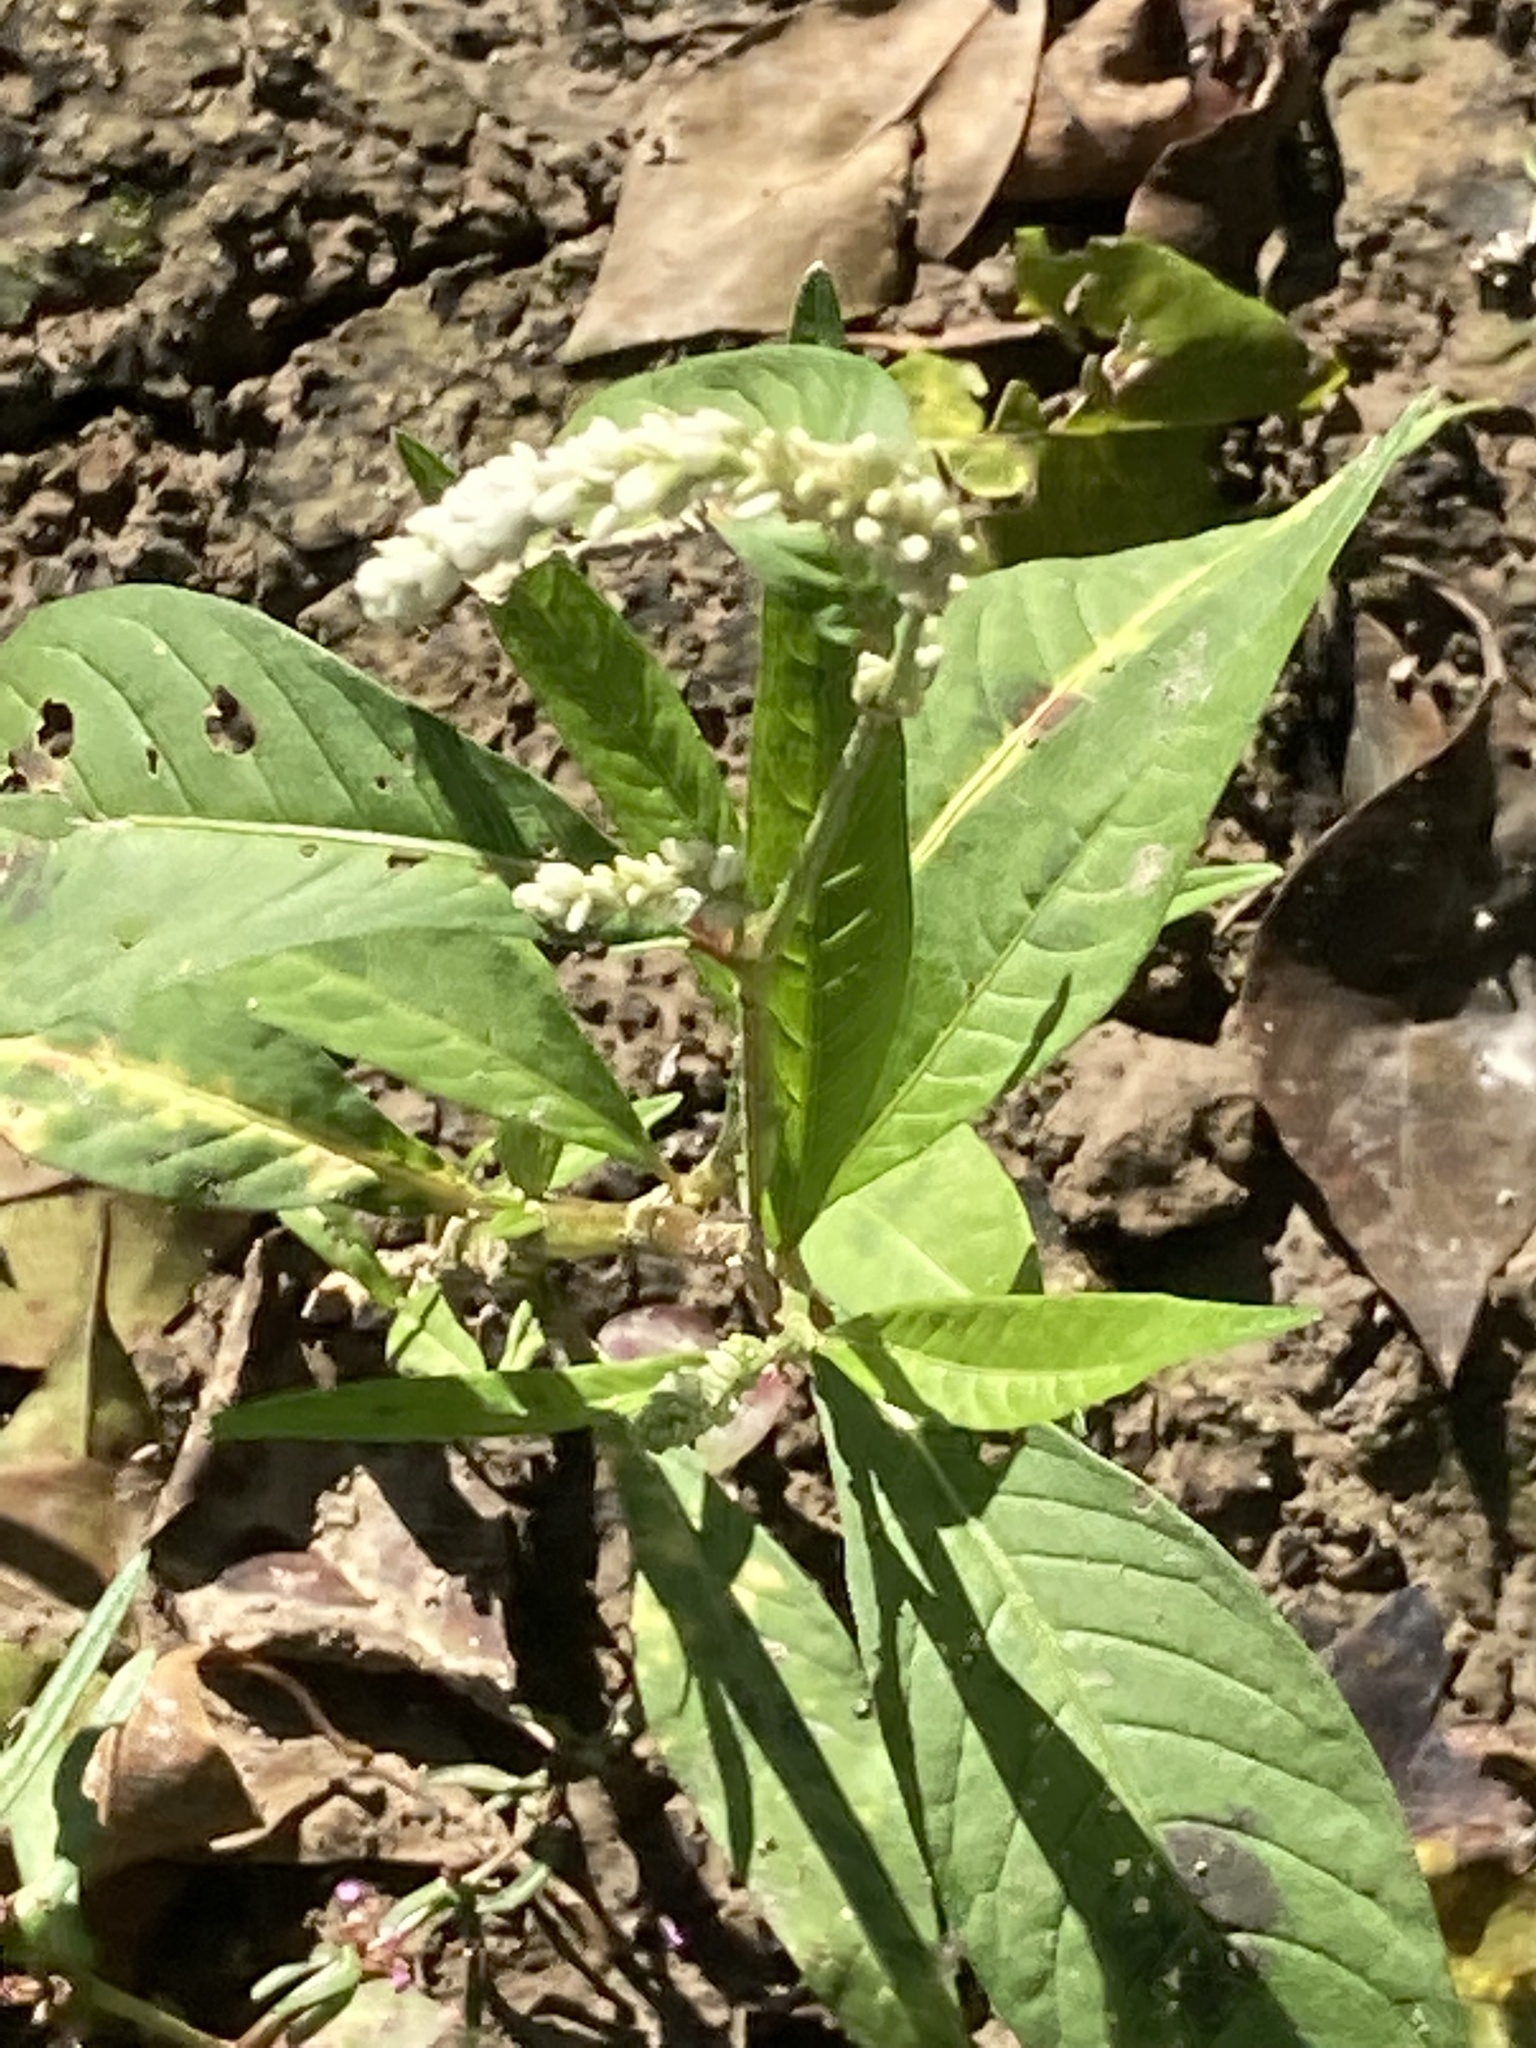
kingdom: Plantae
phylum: Tracheophyta
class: Magnoliopsida
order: Caryophyllales
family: Polygonaceae
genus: Persicaria
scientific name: Persicaria lapathifolia
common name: Curlytop knotweed
